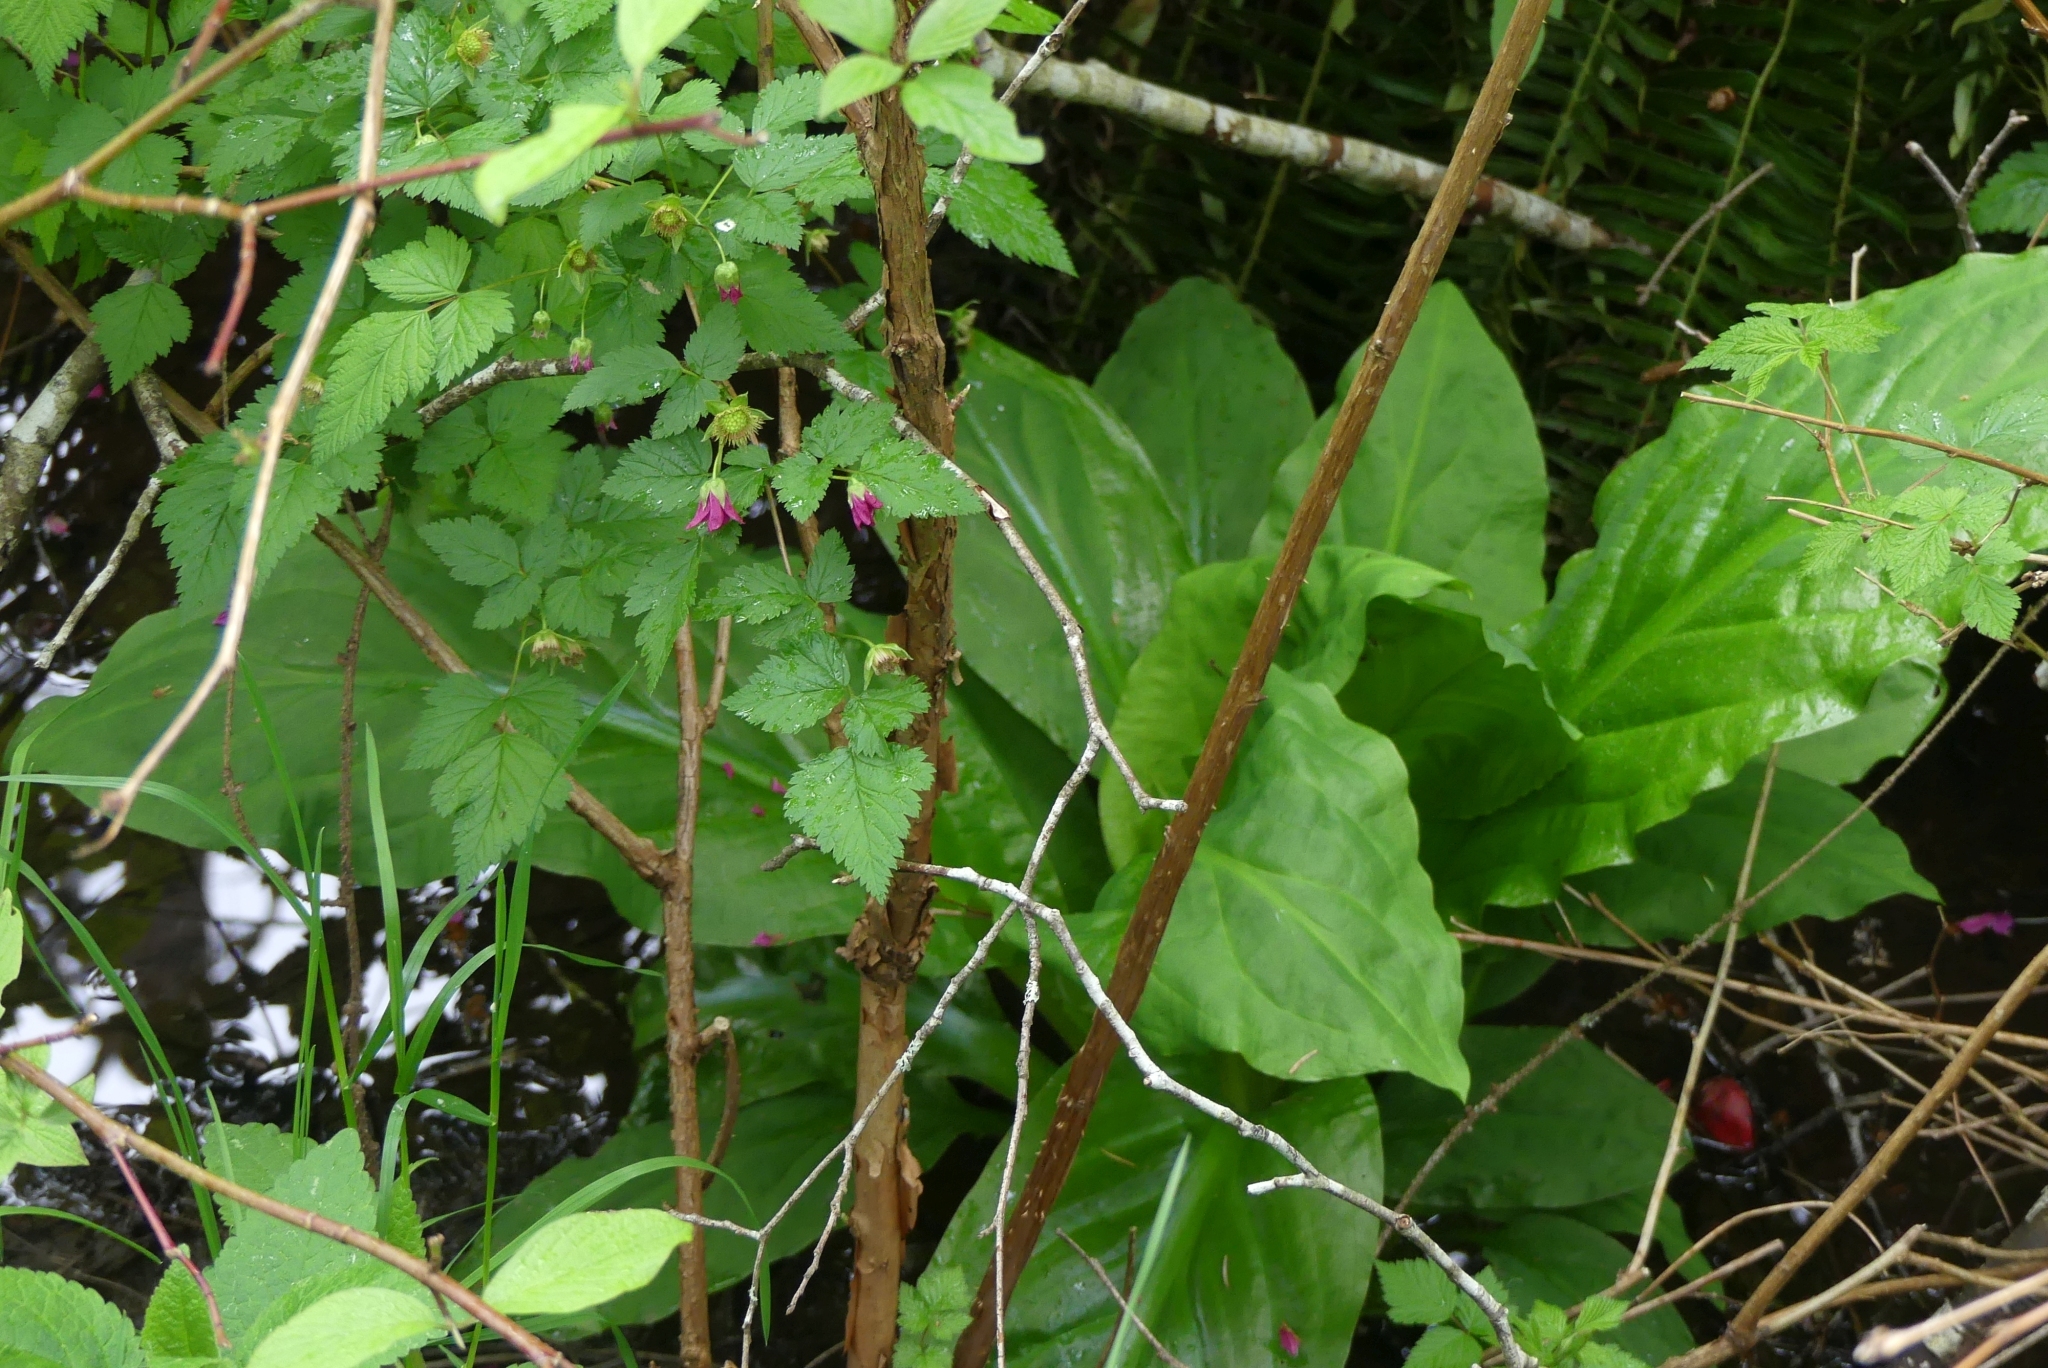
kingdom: Plantae
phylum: Tracheophyta
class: Magnoliopsida
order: Rosales
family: Rosaceae
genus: Rubus
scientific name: Rubus spectabilis
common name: Salmonberry
